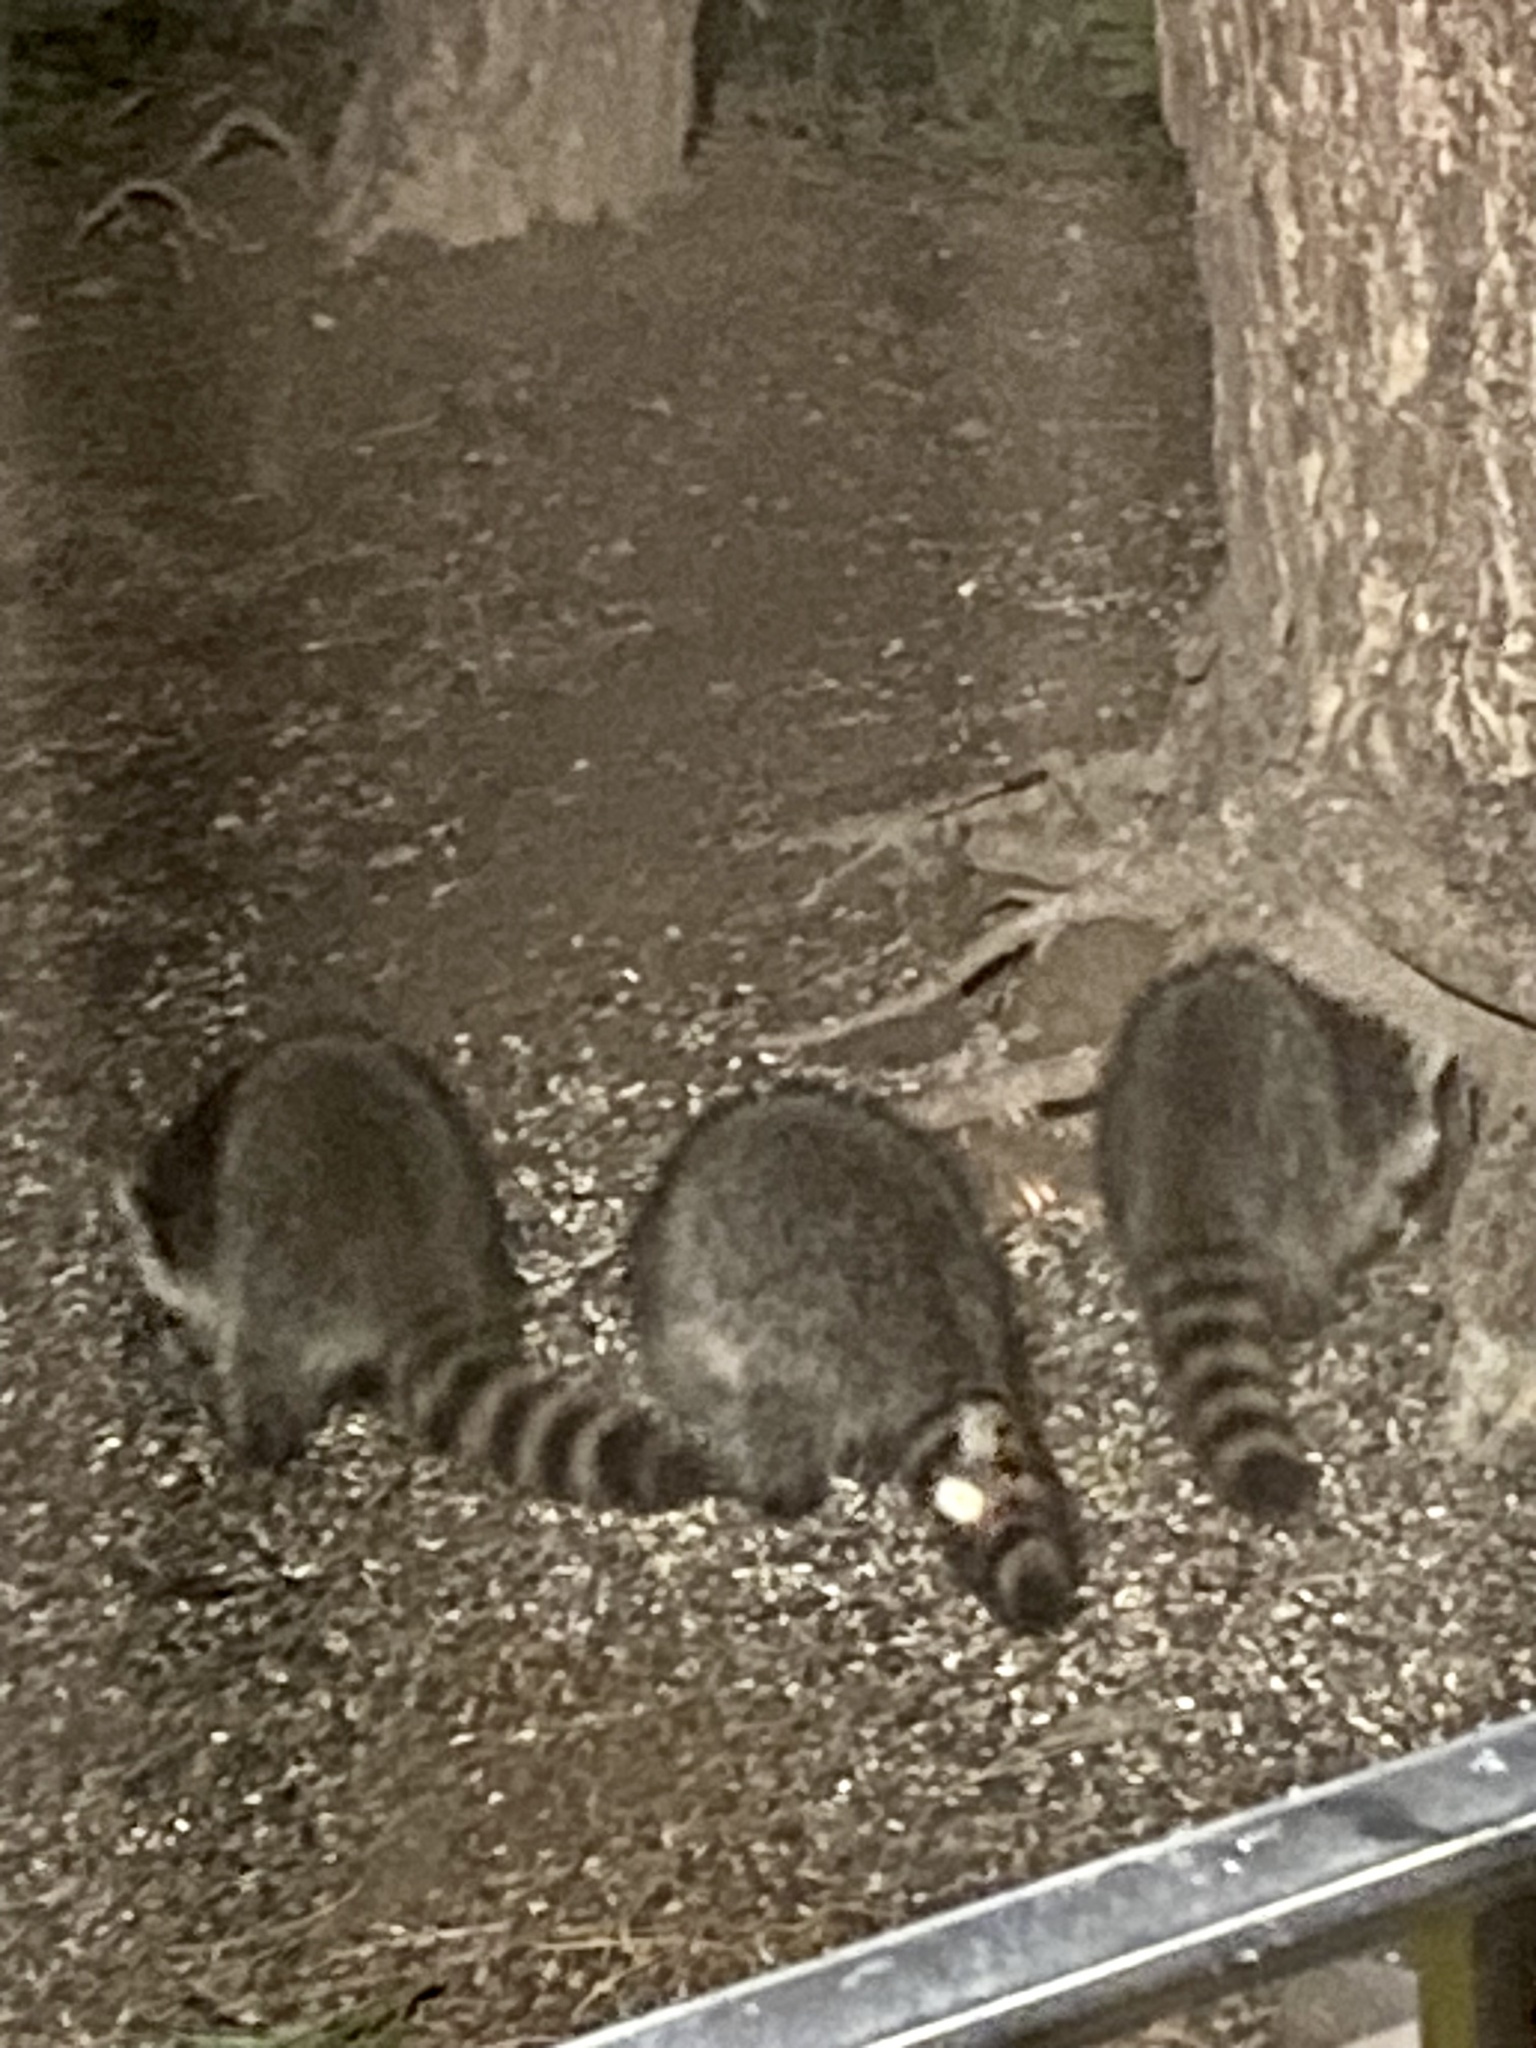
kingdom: Animalia
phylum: Chordata
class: Mammalia
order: Carnivora
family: Procyonidae
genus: Procyon
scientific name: Procyon lotor
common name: Raccoon
